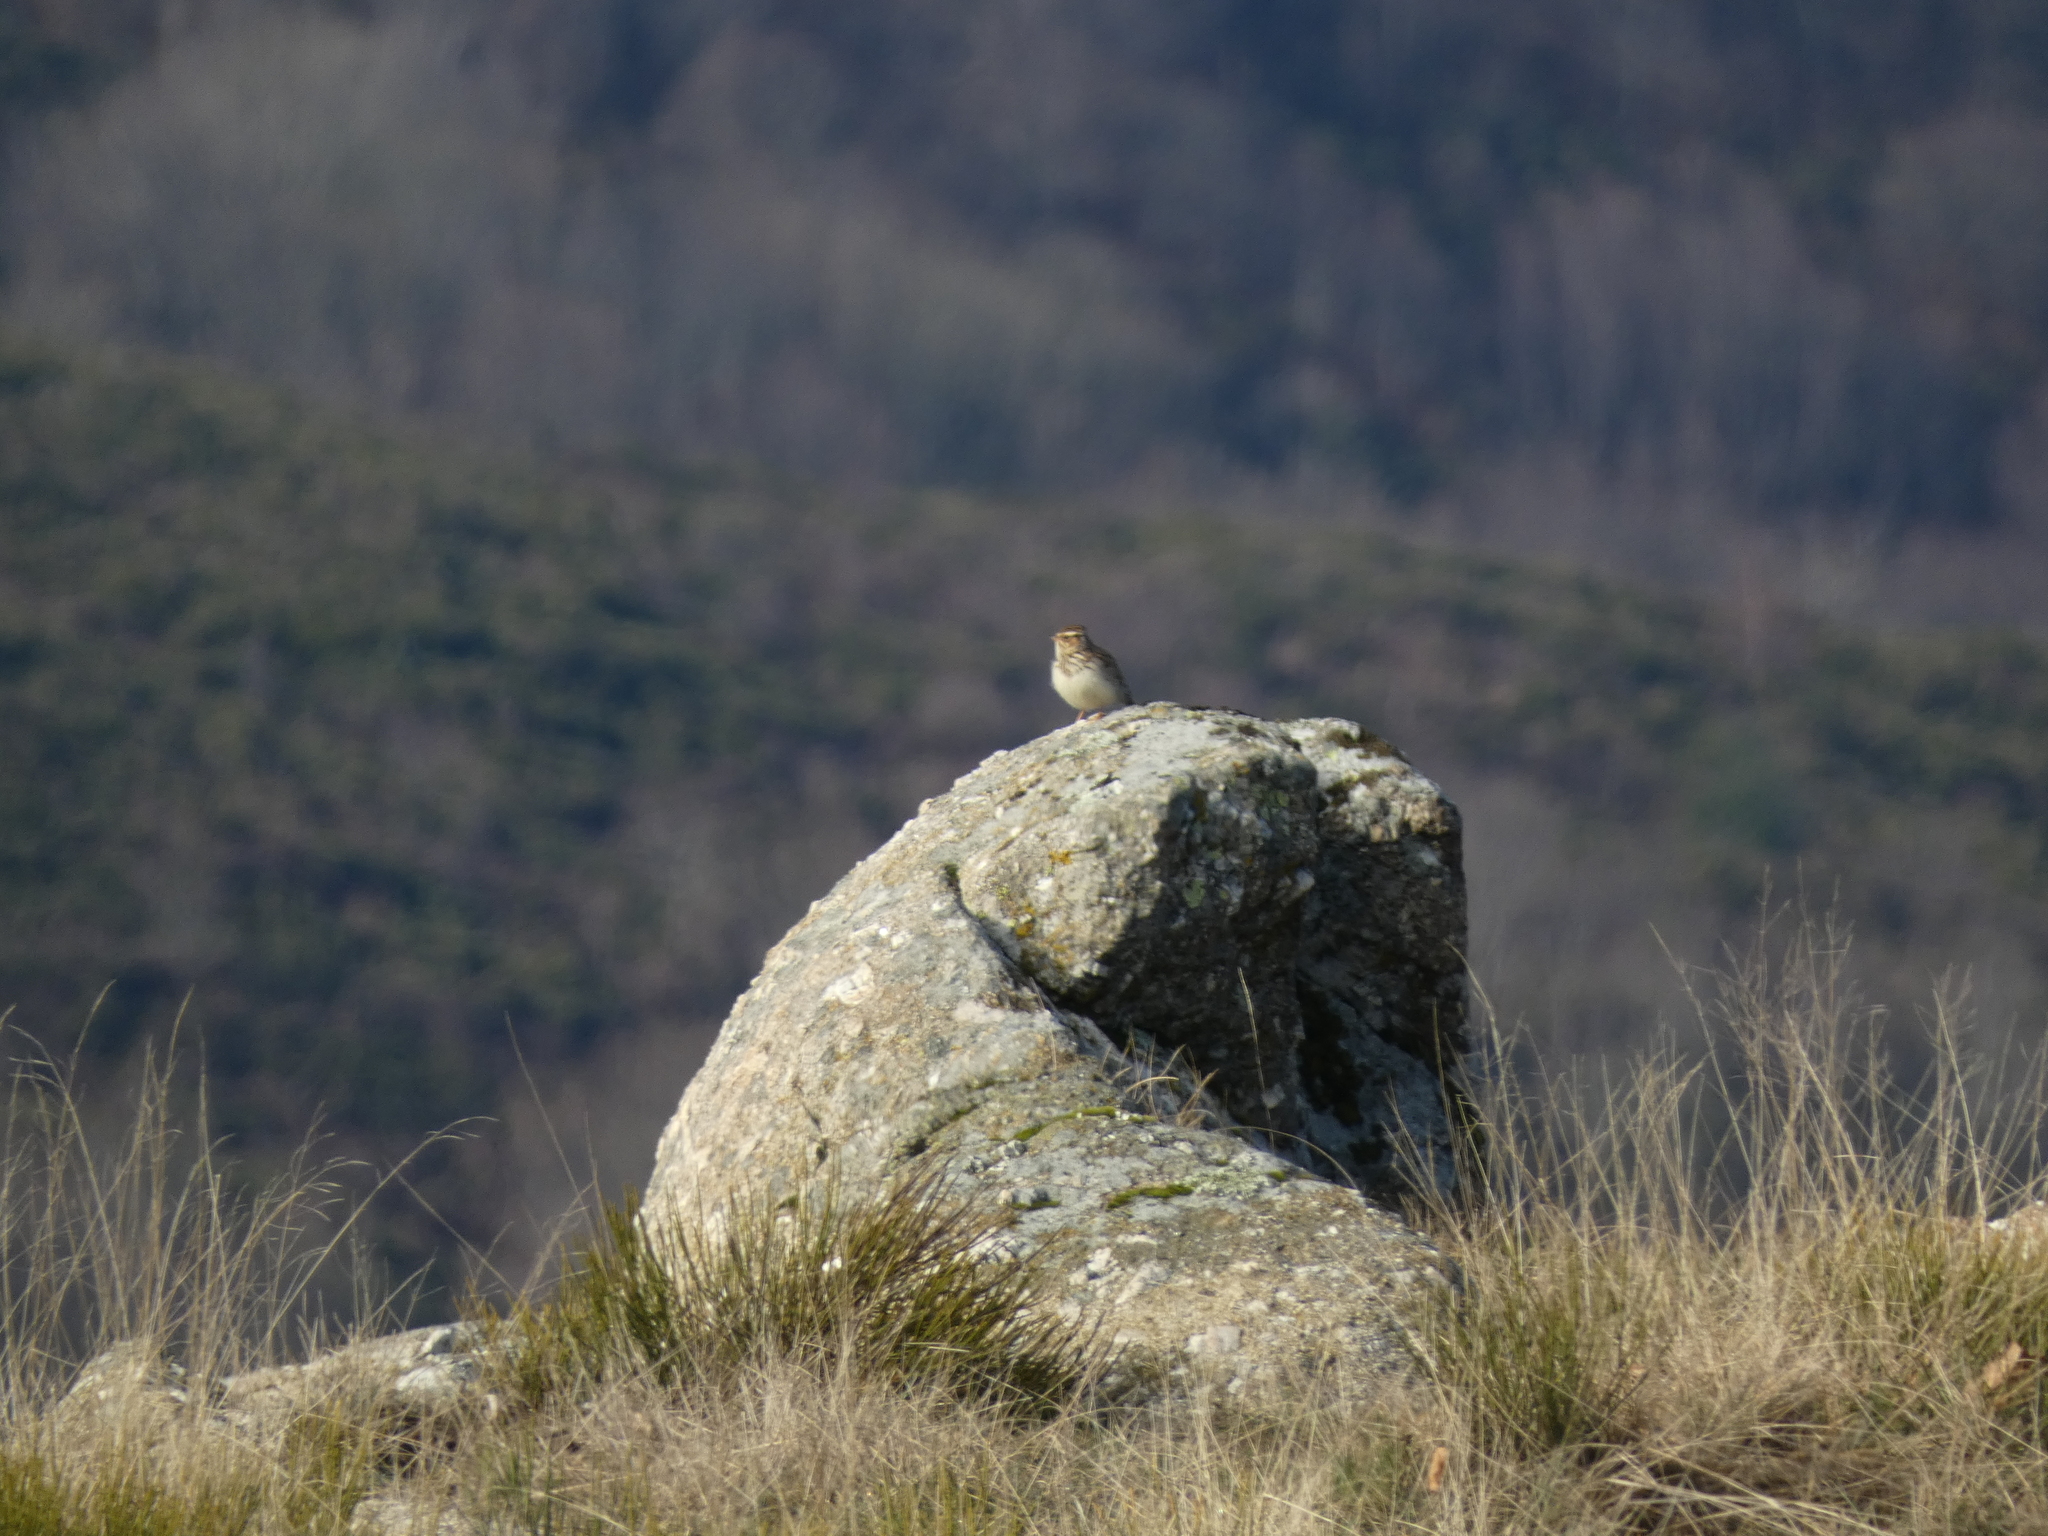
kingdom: Animalia
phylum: Chordata
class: Aves
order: Passeriformes
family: Alaudidae
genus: Lullula
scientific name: Lullula arborea
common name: Woodlark
